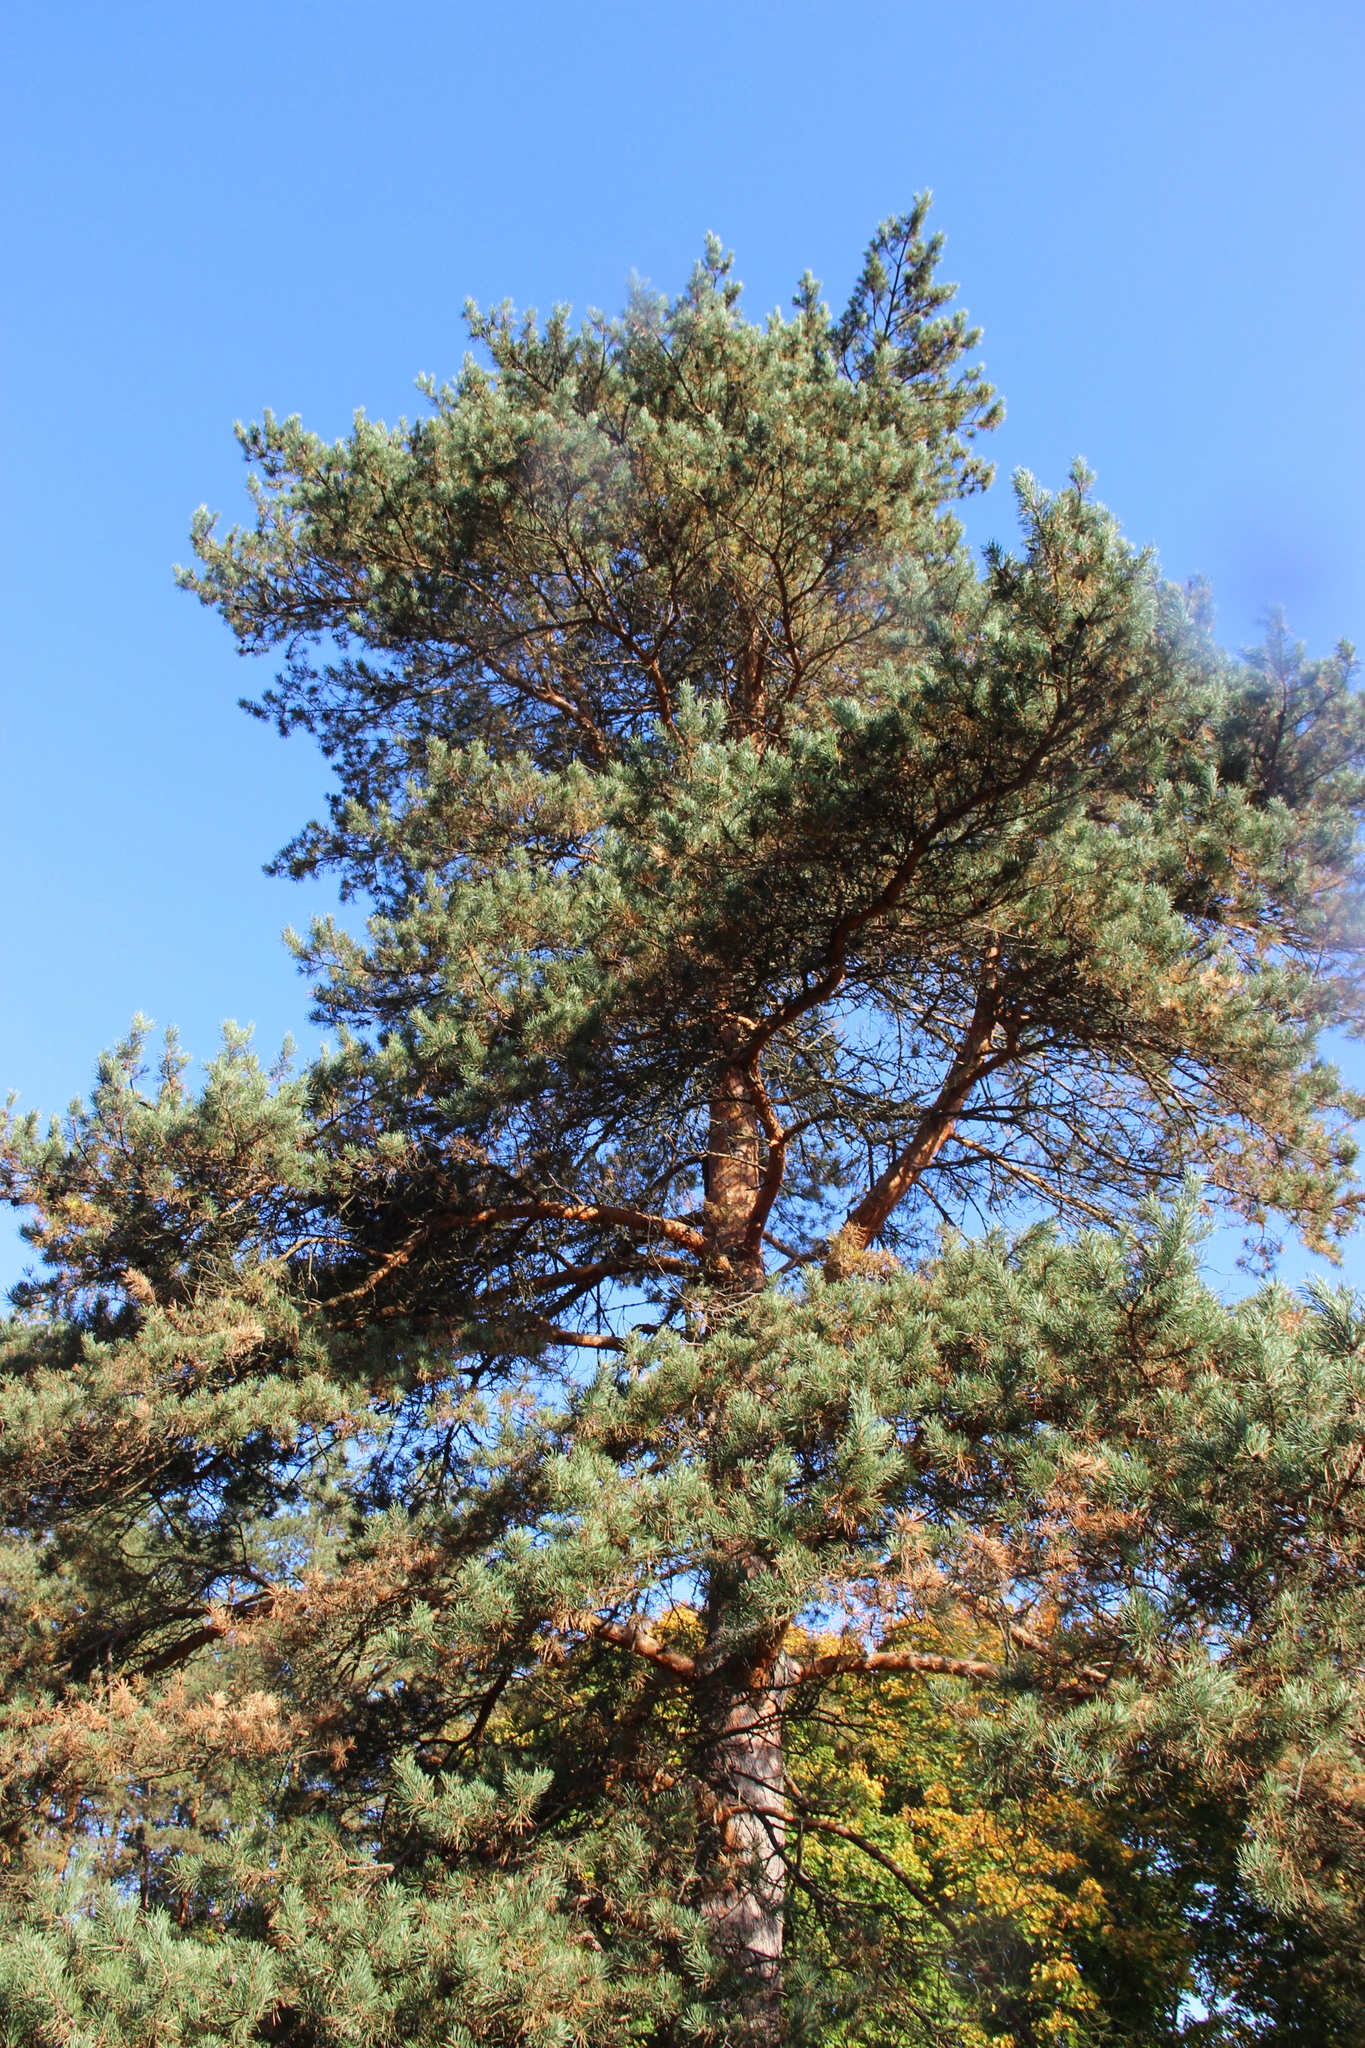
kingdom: Plantae
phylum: Tracheophyta
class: Pinopsida
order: Pinales
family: Pinaceae
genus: Pinus
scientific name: Pinus sylvestris
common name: Scots pine
